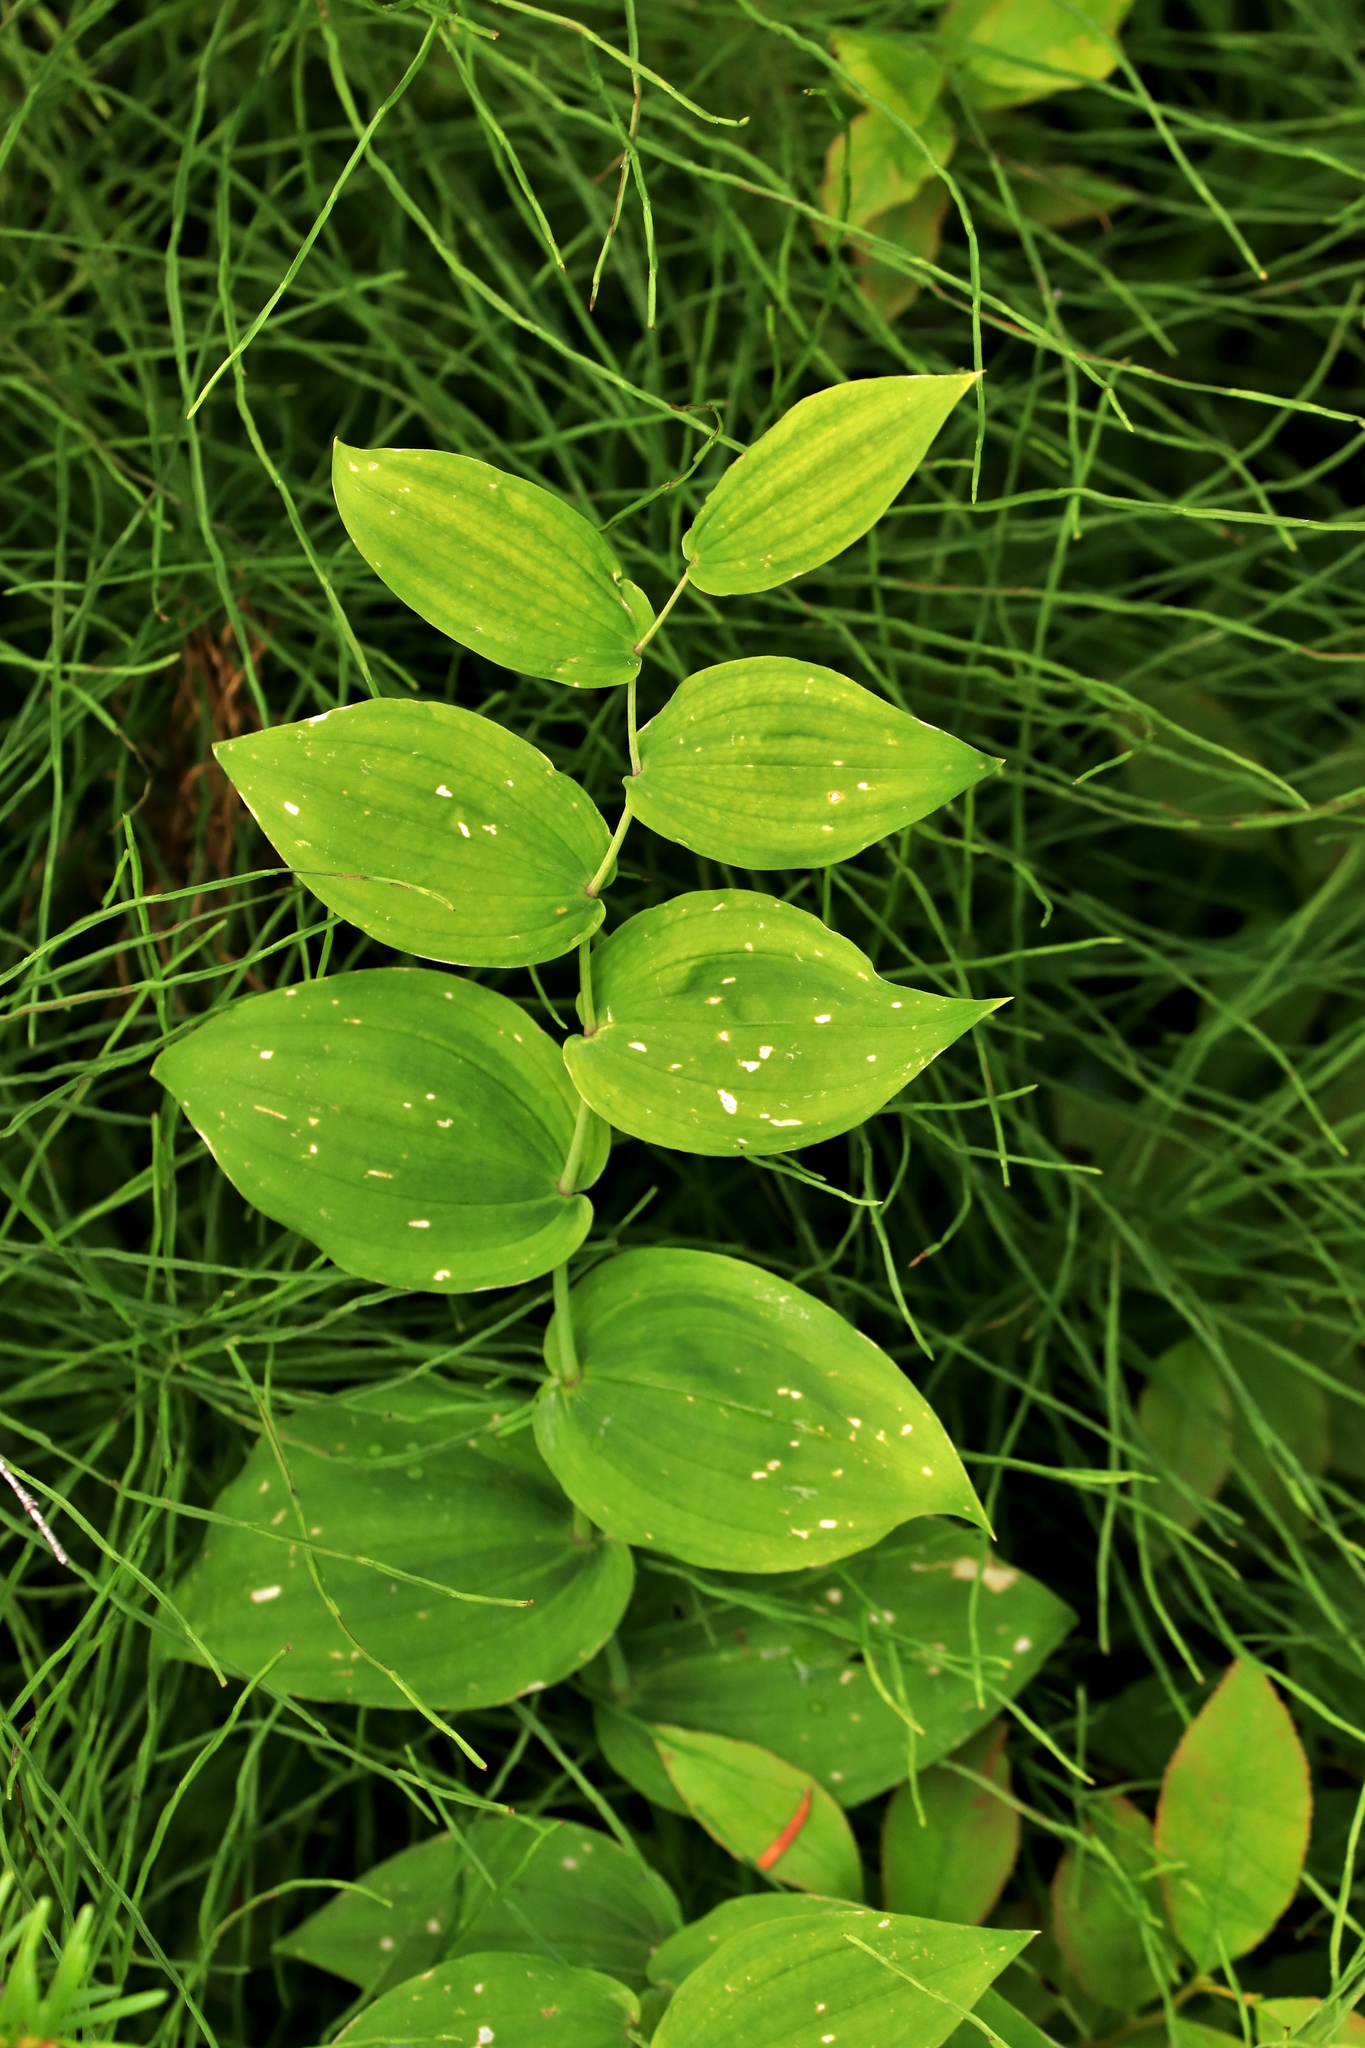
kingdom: Plantae
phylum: Tracheophyta
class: Liliopsida
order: Liliales
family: Liliaceae
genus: Streptopus
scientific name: Streptopus amplexifolius
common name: Clasp twisted stalk
